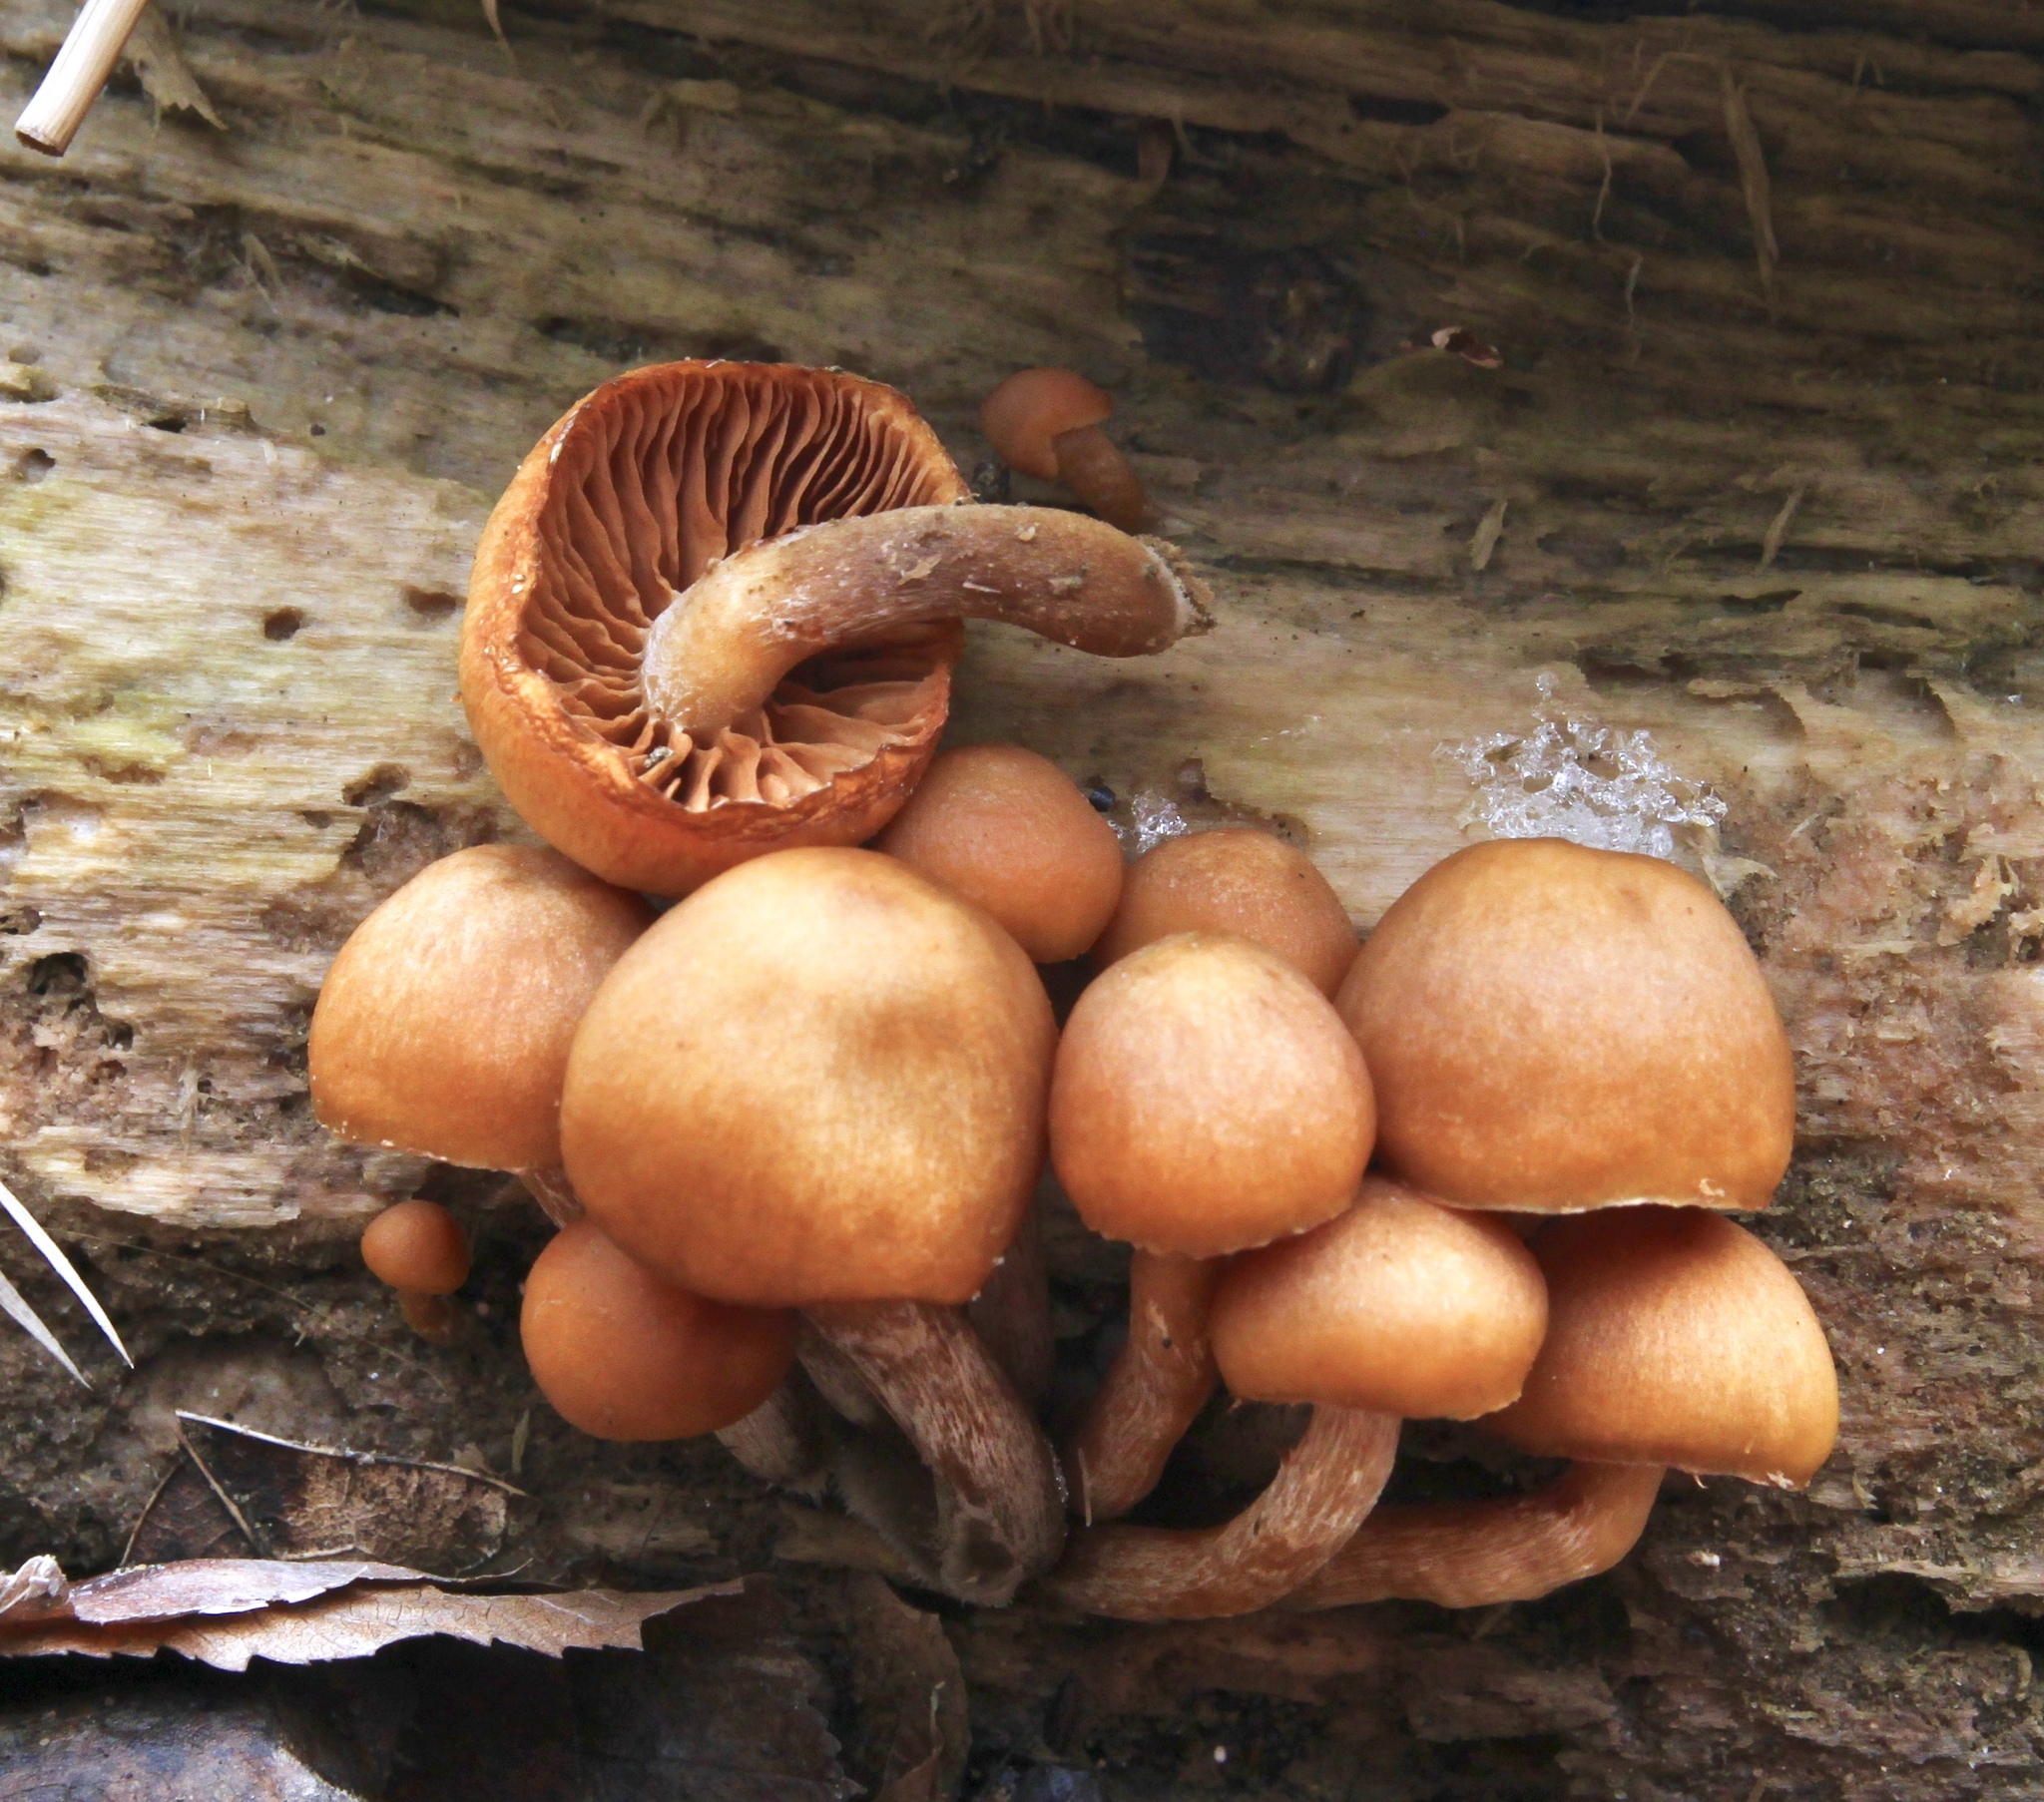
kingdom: Fungi
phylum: Basidiomycota
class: Agaricomycetes
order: Agaricales
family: Hymenogastraceae
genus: Galerina
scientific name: Galerina marginata
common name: Funeral bell
